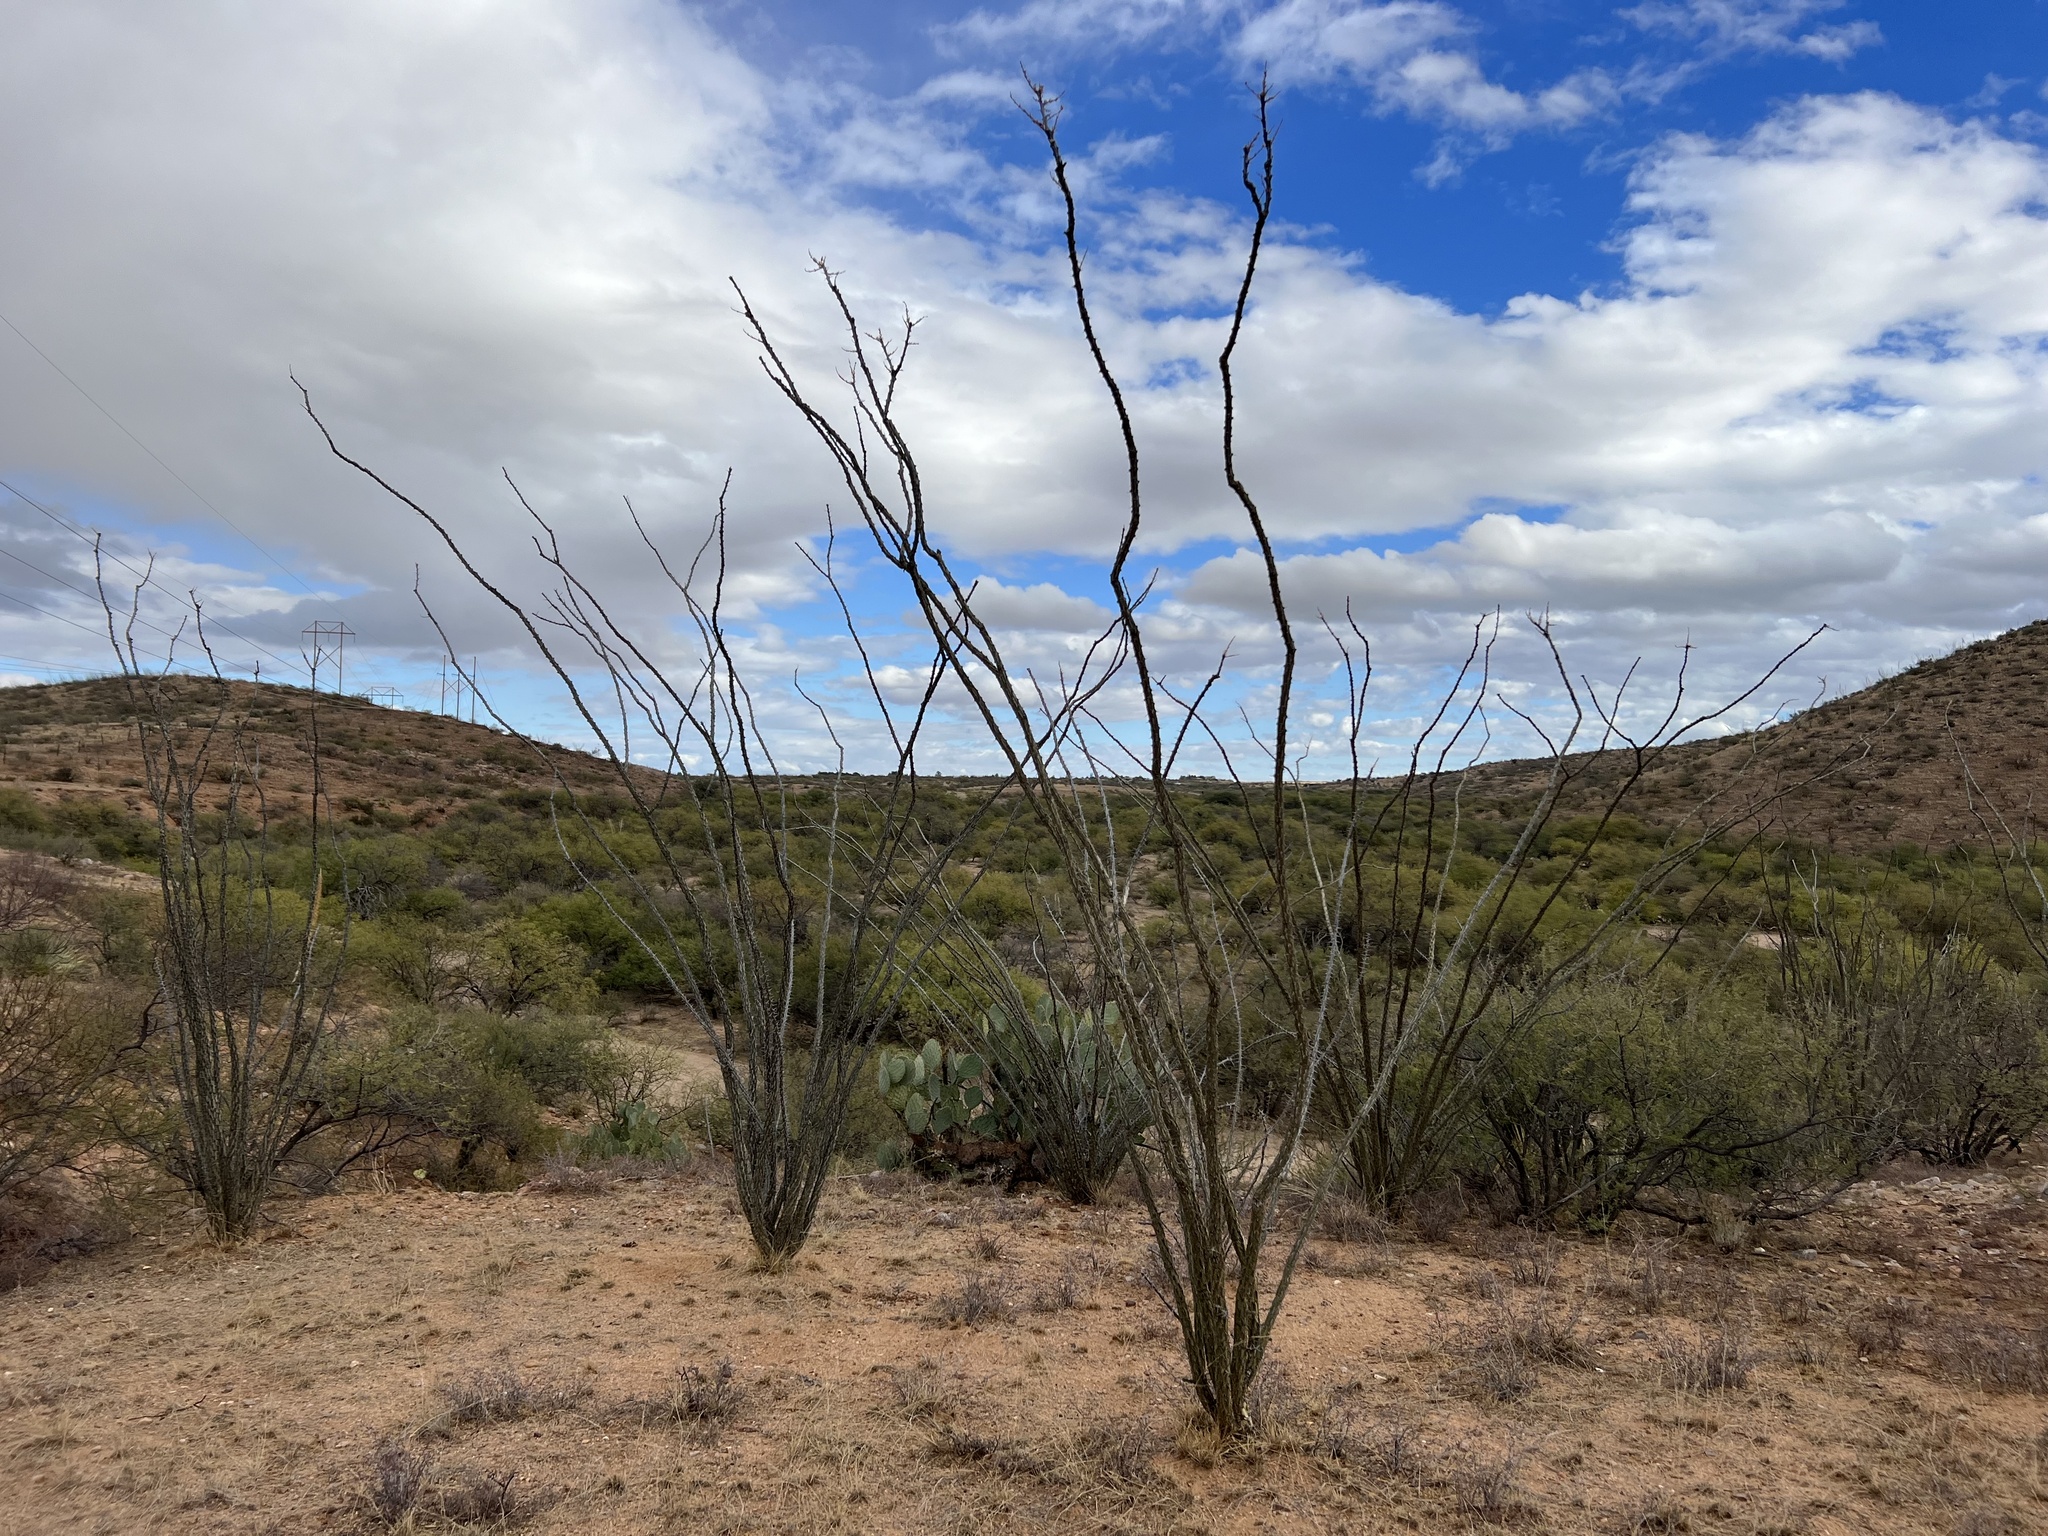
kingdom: Plantae
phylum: Tracheophyta
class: Magnoliopsida
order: Ericales
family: Fouquieriaceae
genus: Fouquieria
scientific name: Fouquieria splendens
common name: Vine-cactus
